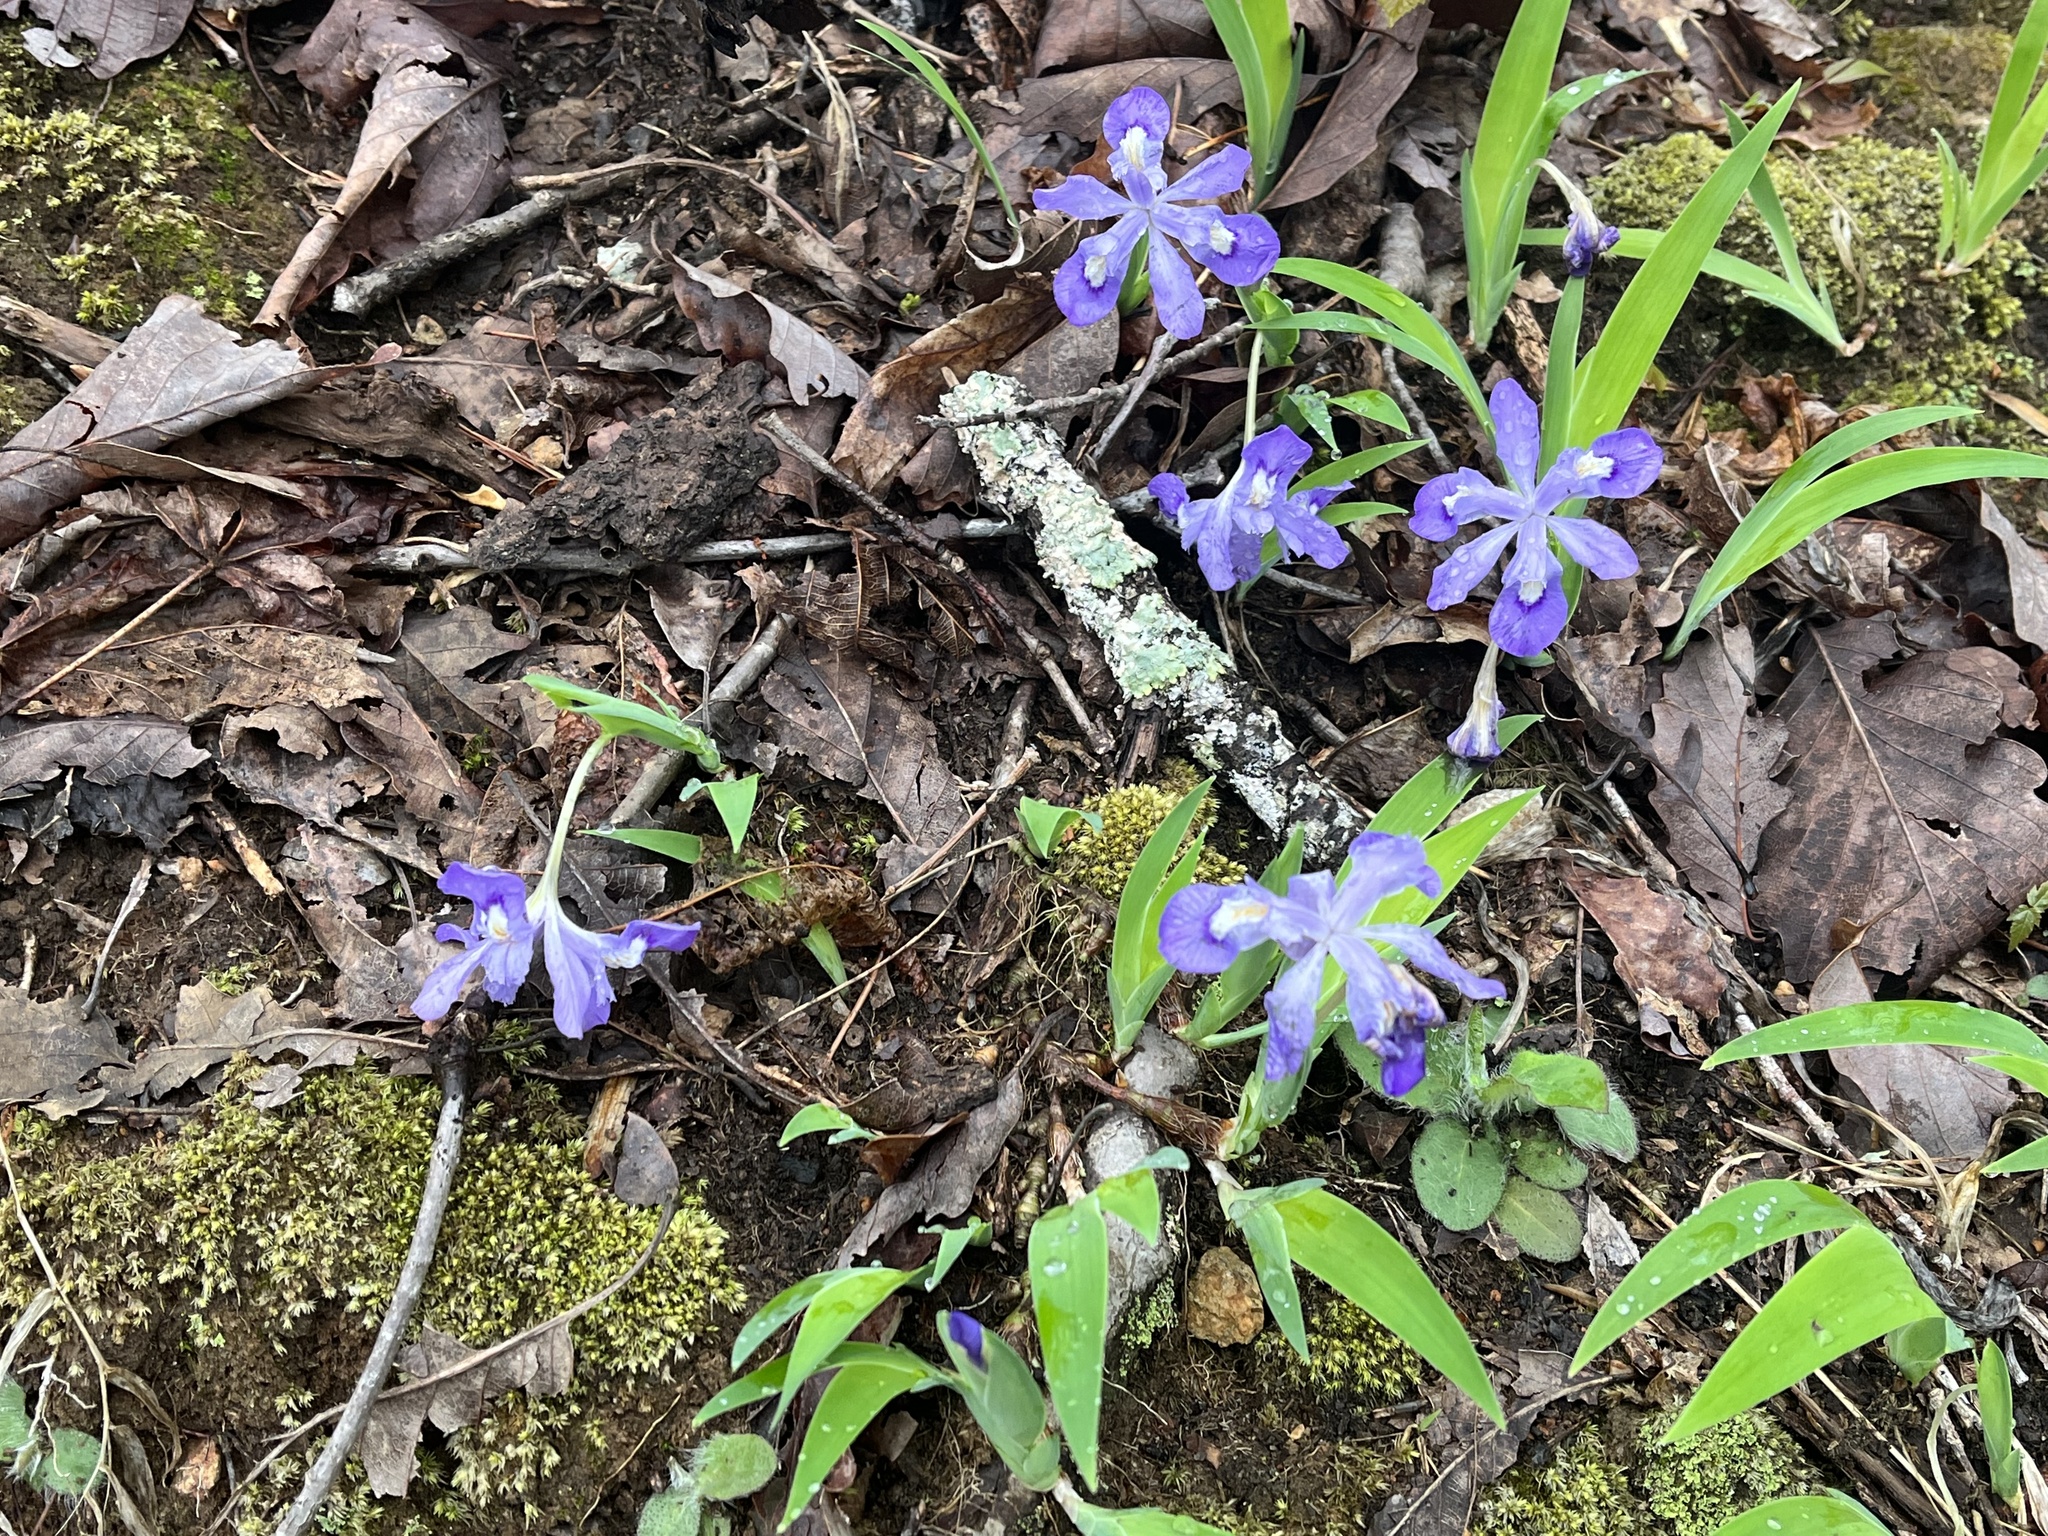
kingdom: Plantae
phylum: Tracheophyta
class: Liliopsida
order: Asparagales
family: Iridaceae
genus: Iris
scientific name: Iris cristata
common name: Crested iris
